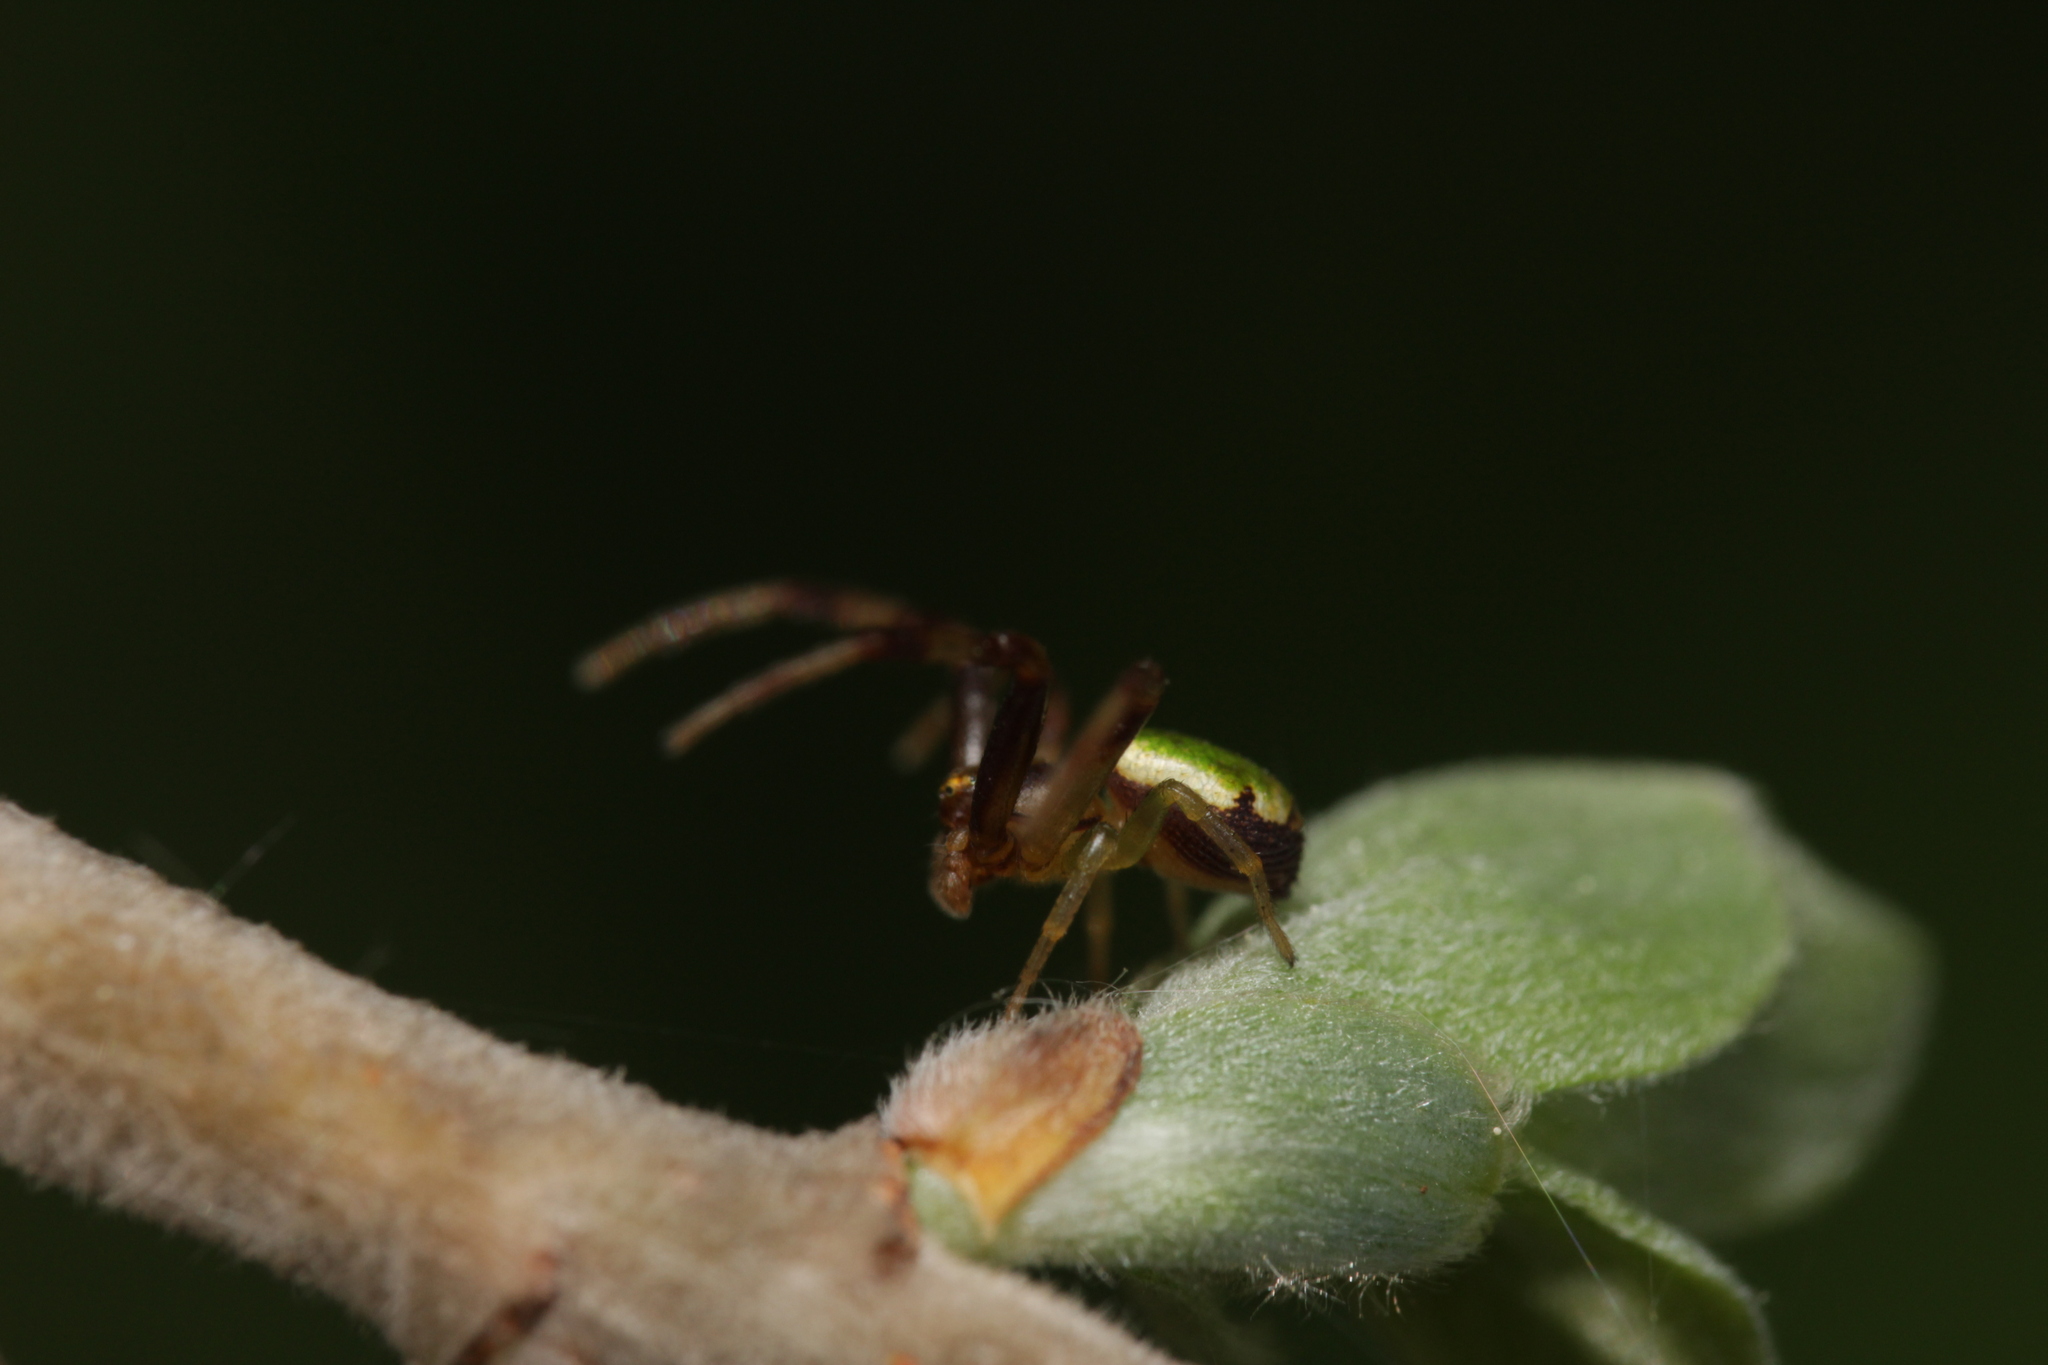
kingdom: Animalia
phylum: Arthropoda
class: Arachnida
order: Araneae
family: Thomisidae
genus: Ebrechtella
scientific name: Ebrechtella tricuspidata
